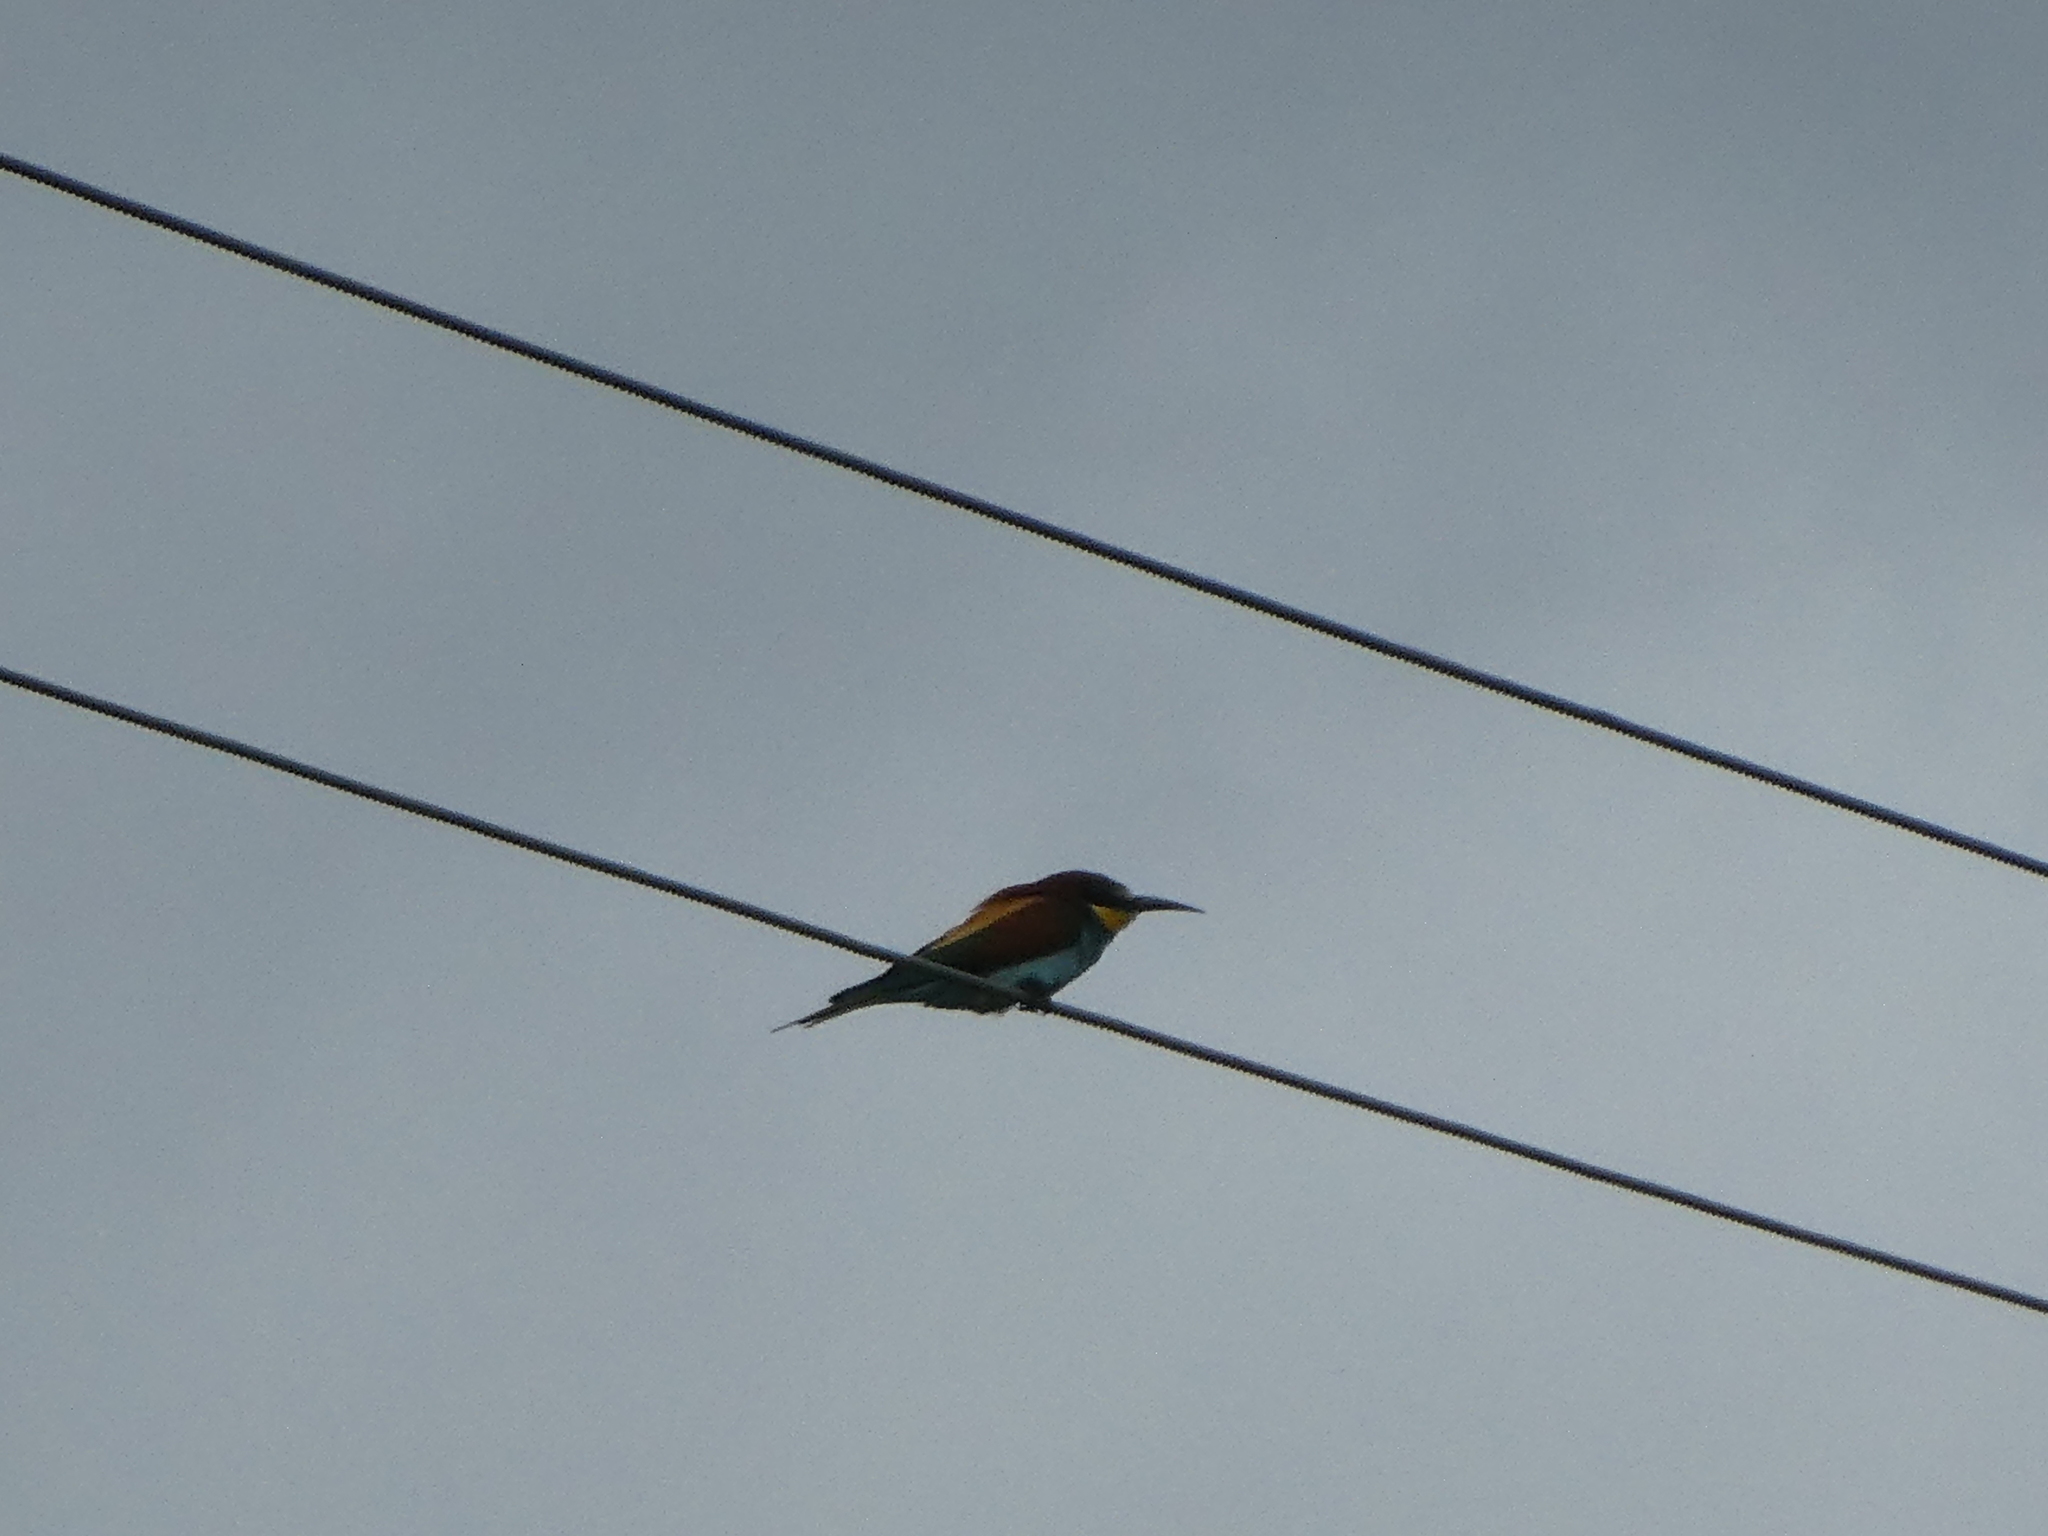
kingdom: Animalia
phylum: Chordata
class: Aves
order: Coraciiformes
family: Meropidae
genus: Merops
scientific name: Merops apiaster
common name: European bee-eater
